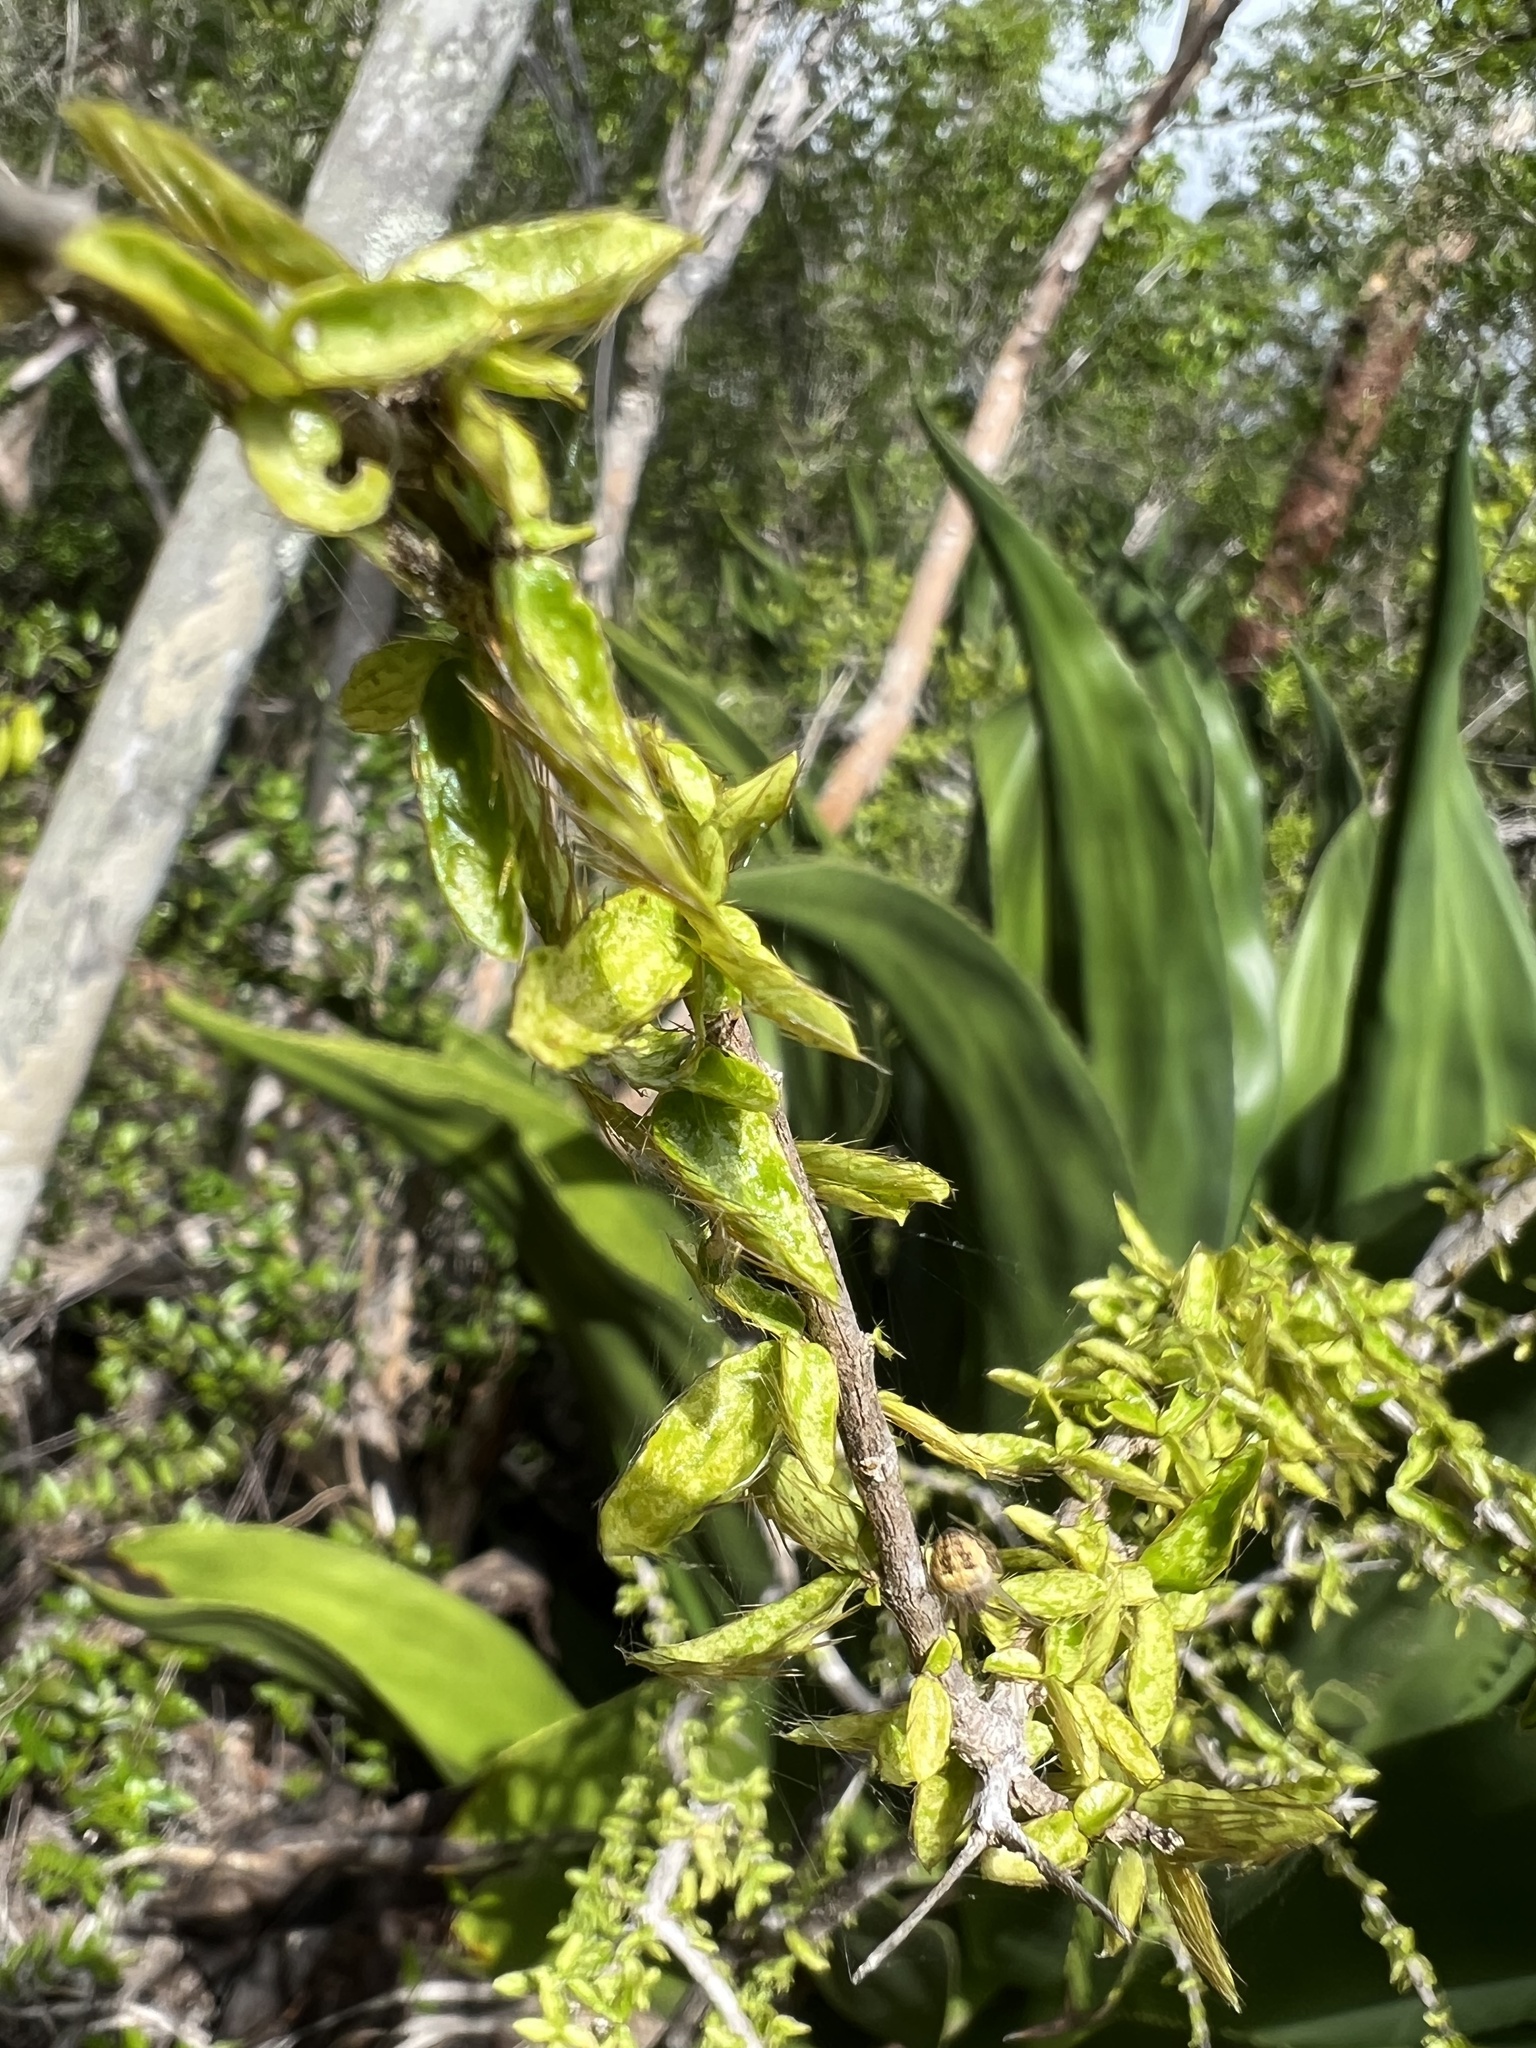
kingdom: Plantae
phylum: Tracheophyta
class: Magnoliopsida
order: Malpighiales
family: Malpighiaceae
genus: Malpighia
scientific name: Malpighia cubensis
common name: Lady hair
